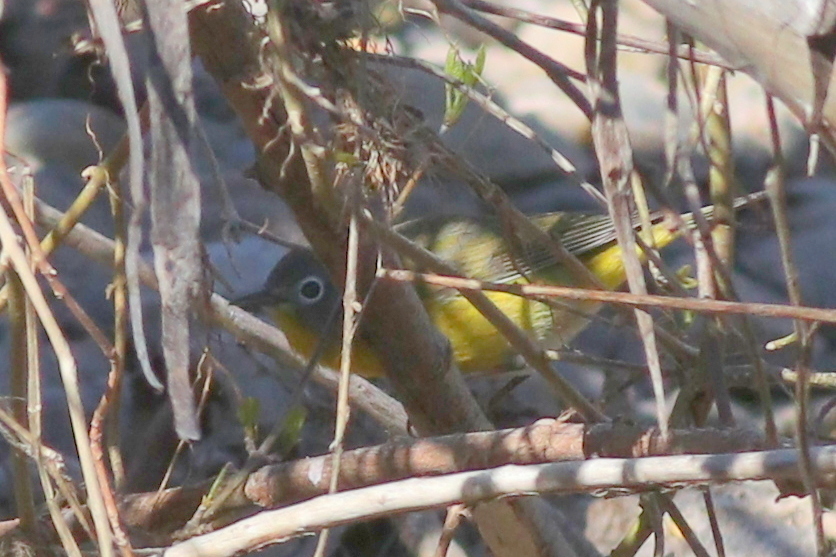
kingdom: Animalia
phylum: Chordata
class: Aves
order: Passeriformes
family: Parulidae
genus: Leiothlypis
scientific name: Leiothlypis ruficapilla
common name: Nashville warbler
